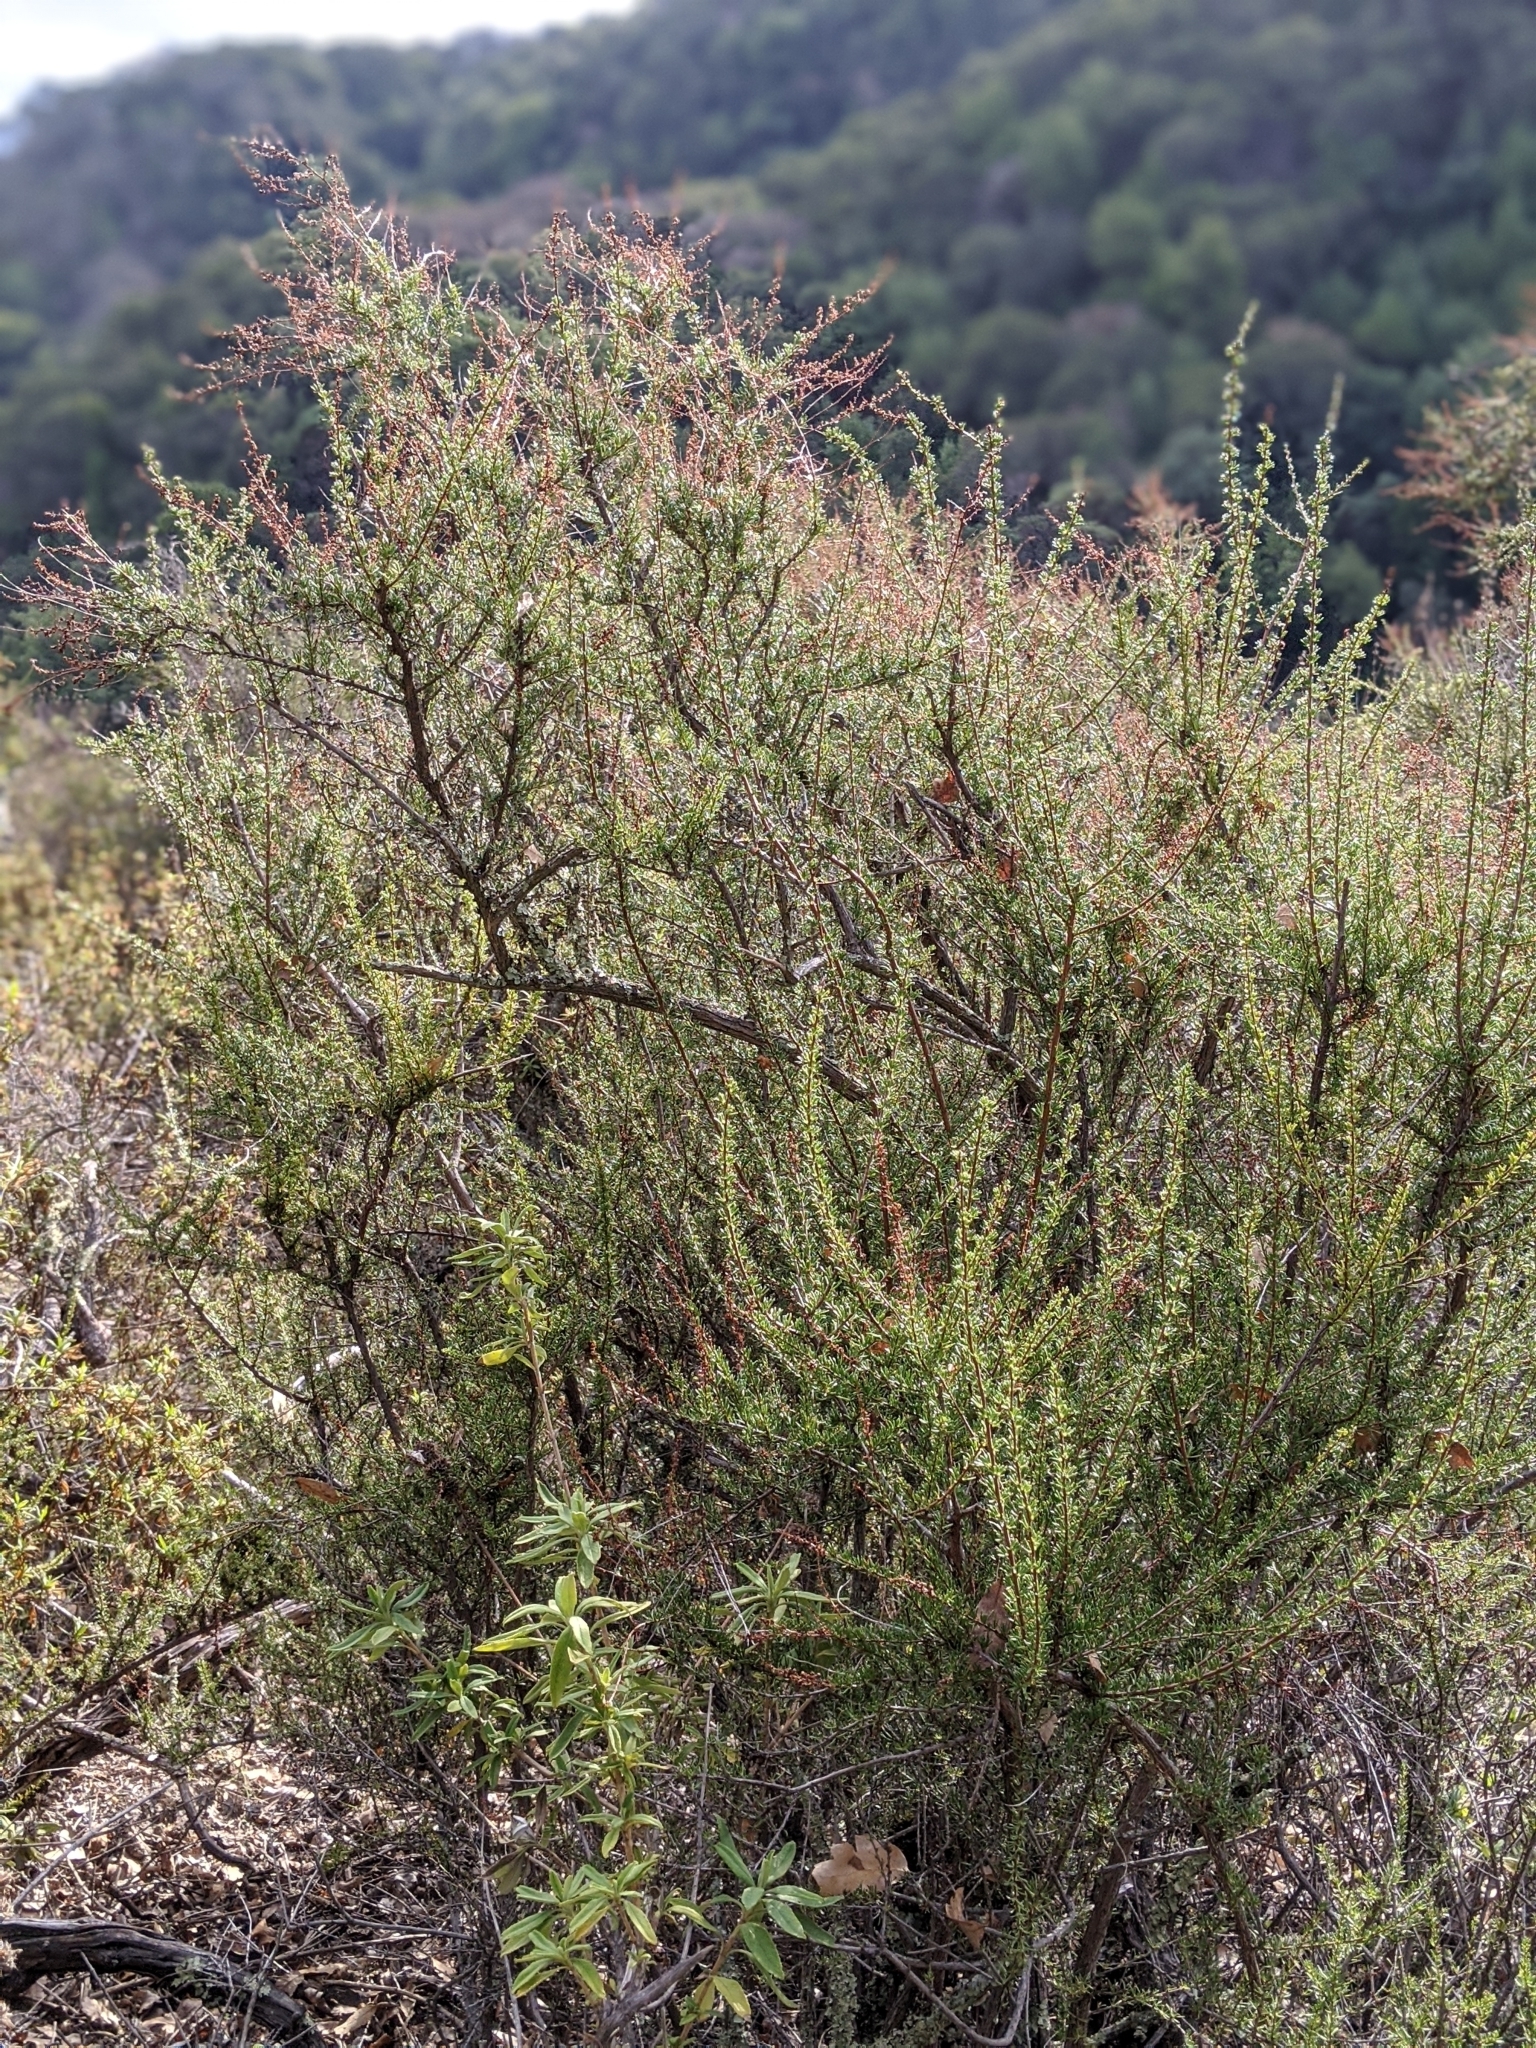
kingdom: Plantae
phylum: Tracheophyta
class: Magnoliopsida
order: Rosales
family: Rosaceae
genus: Adenostoma
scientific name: Adenostoma fasciculatum
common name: Chamise
